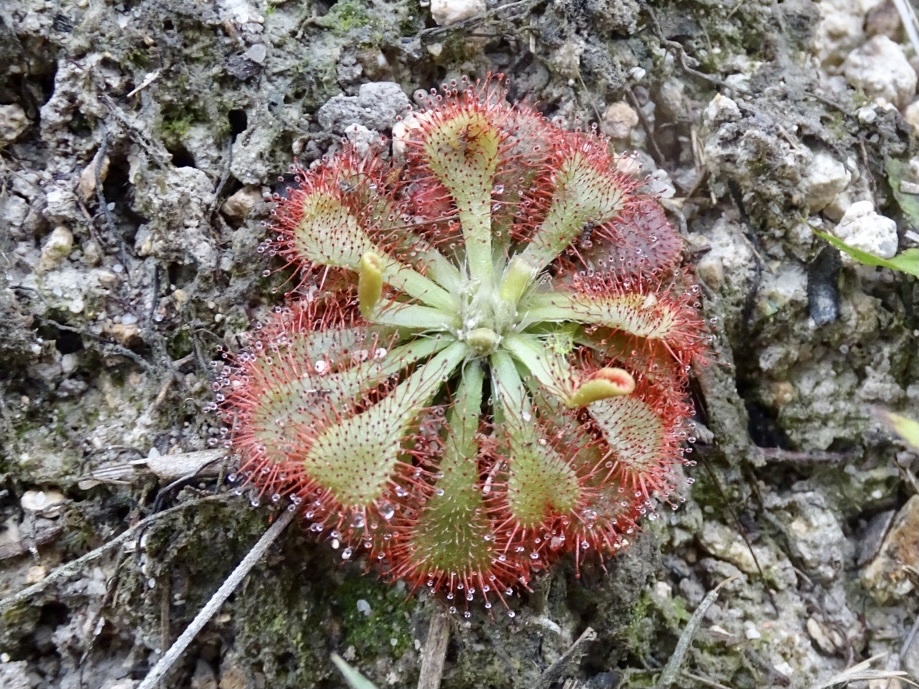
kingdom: Plantae
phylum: Tracheophyta
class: Magnoliopsida
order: Caryophyllales
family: Droseraceae
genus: Drosera
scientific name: Drosera spatulata
